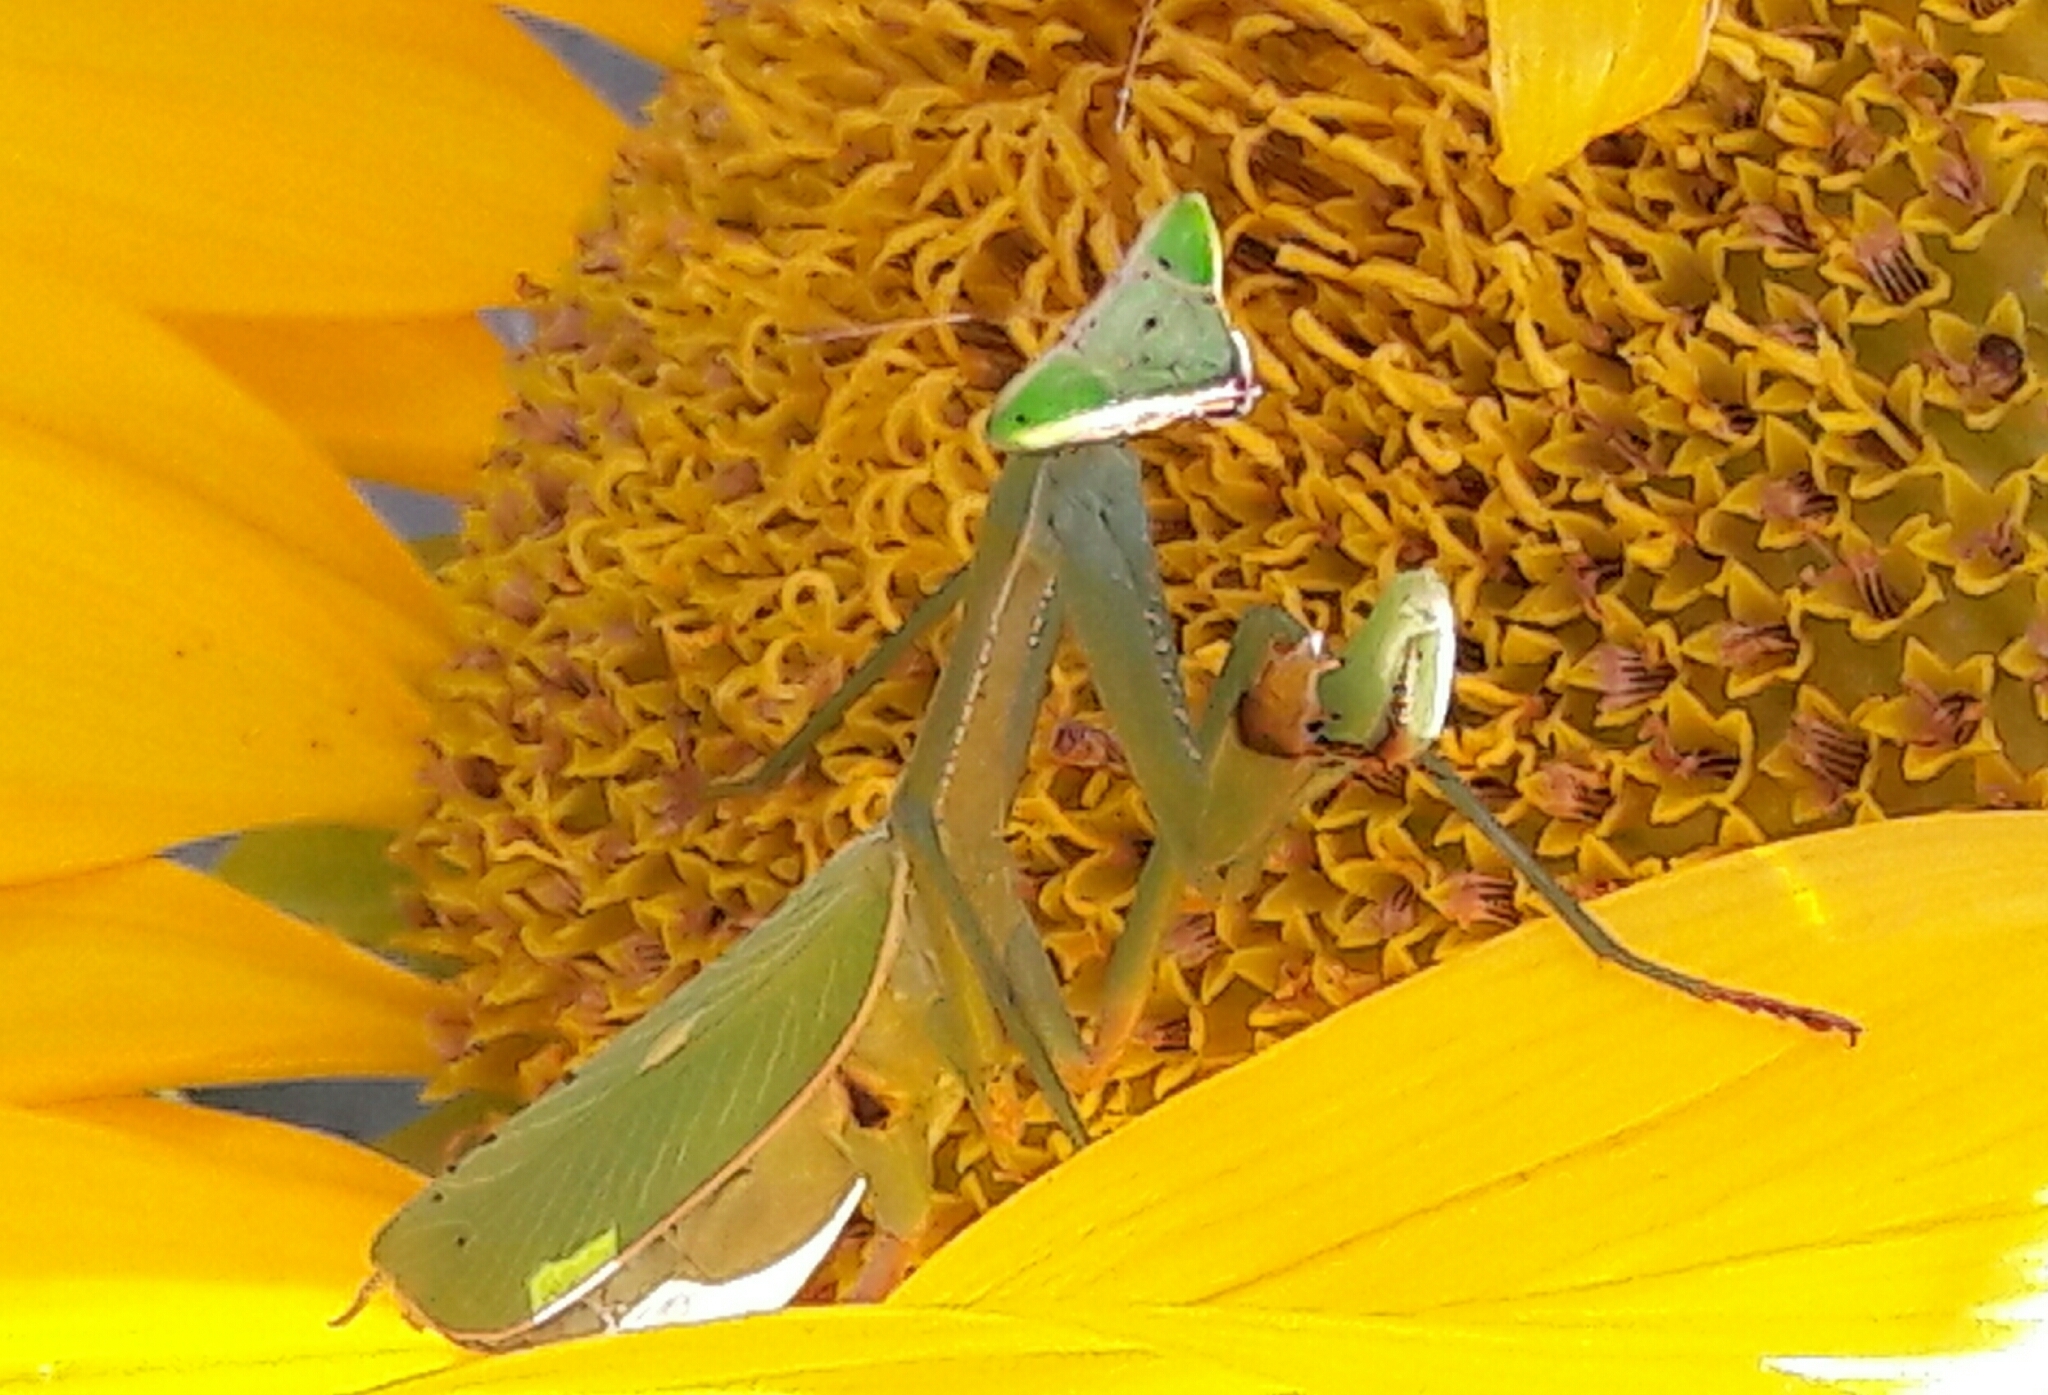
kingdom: Animalia
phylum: Arthropoda
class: Insecta
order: Mantodea
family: Mantidae
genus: Oxyopsis
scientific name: Oxyopsis
